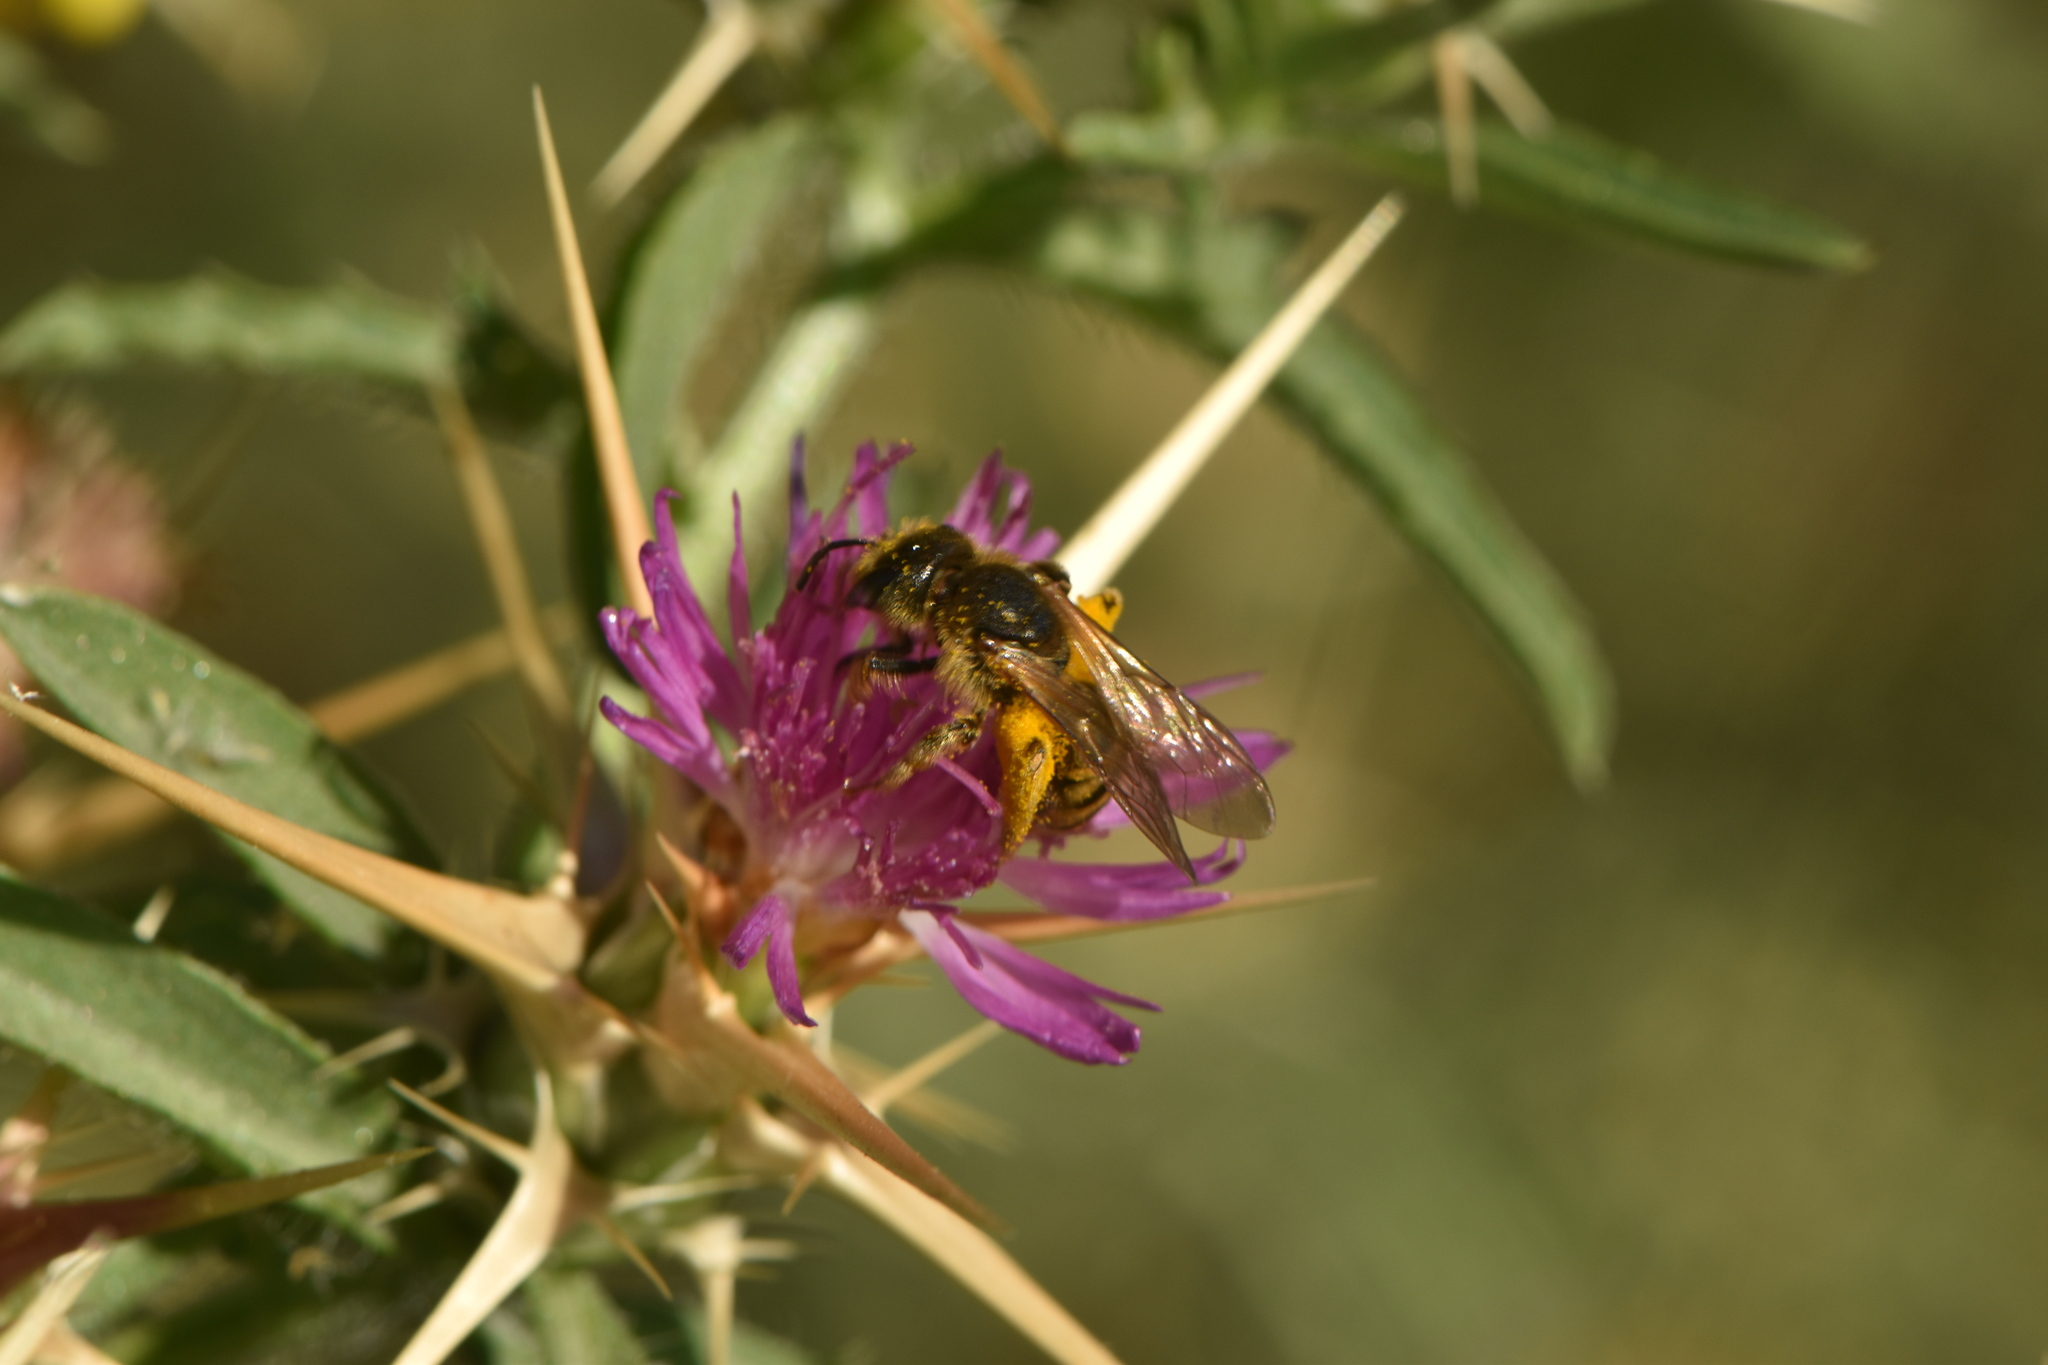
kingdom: Animalia
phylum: Arthropoda
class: Insecta
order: Hymenoptera
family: Halictidae
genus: Halictus
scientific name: Halictus scabiosae
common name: Great banded furrow bee
